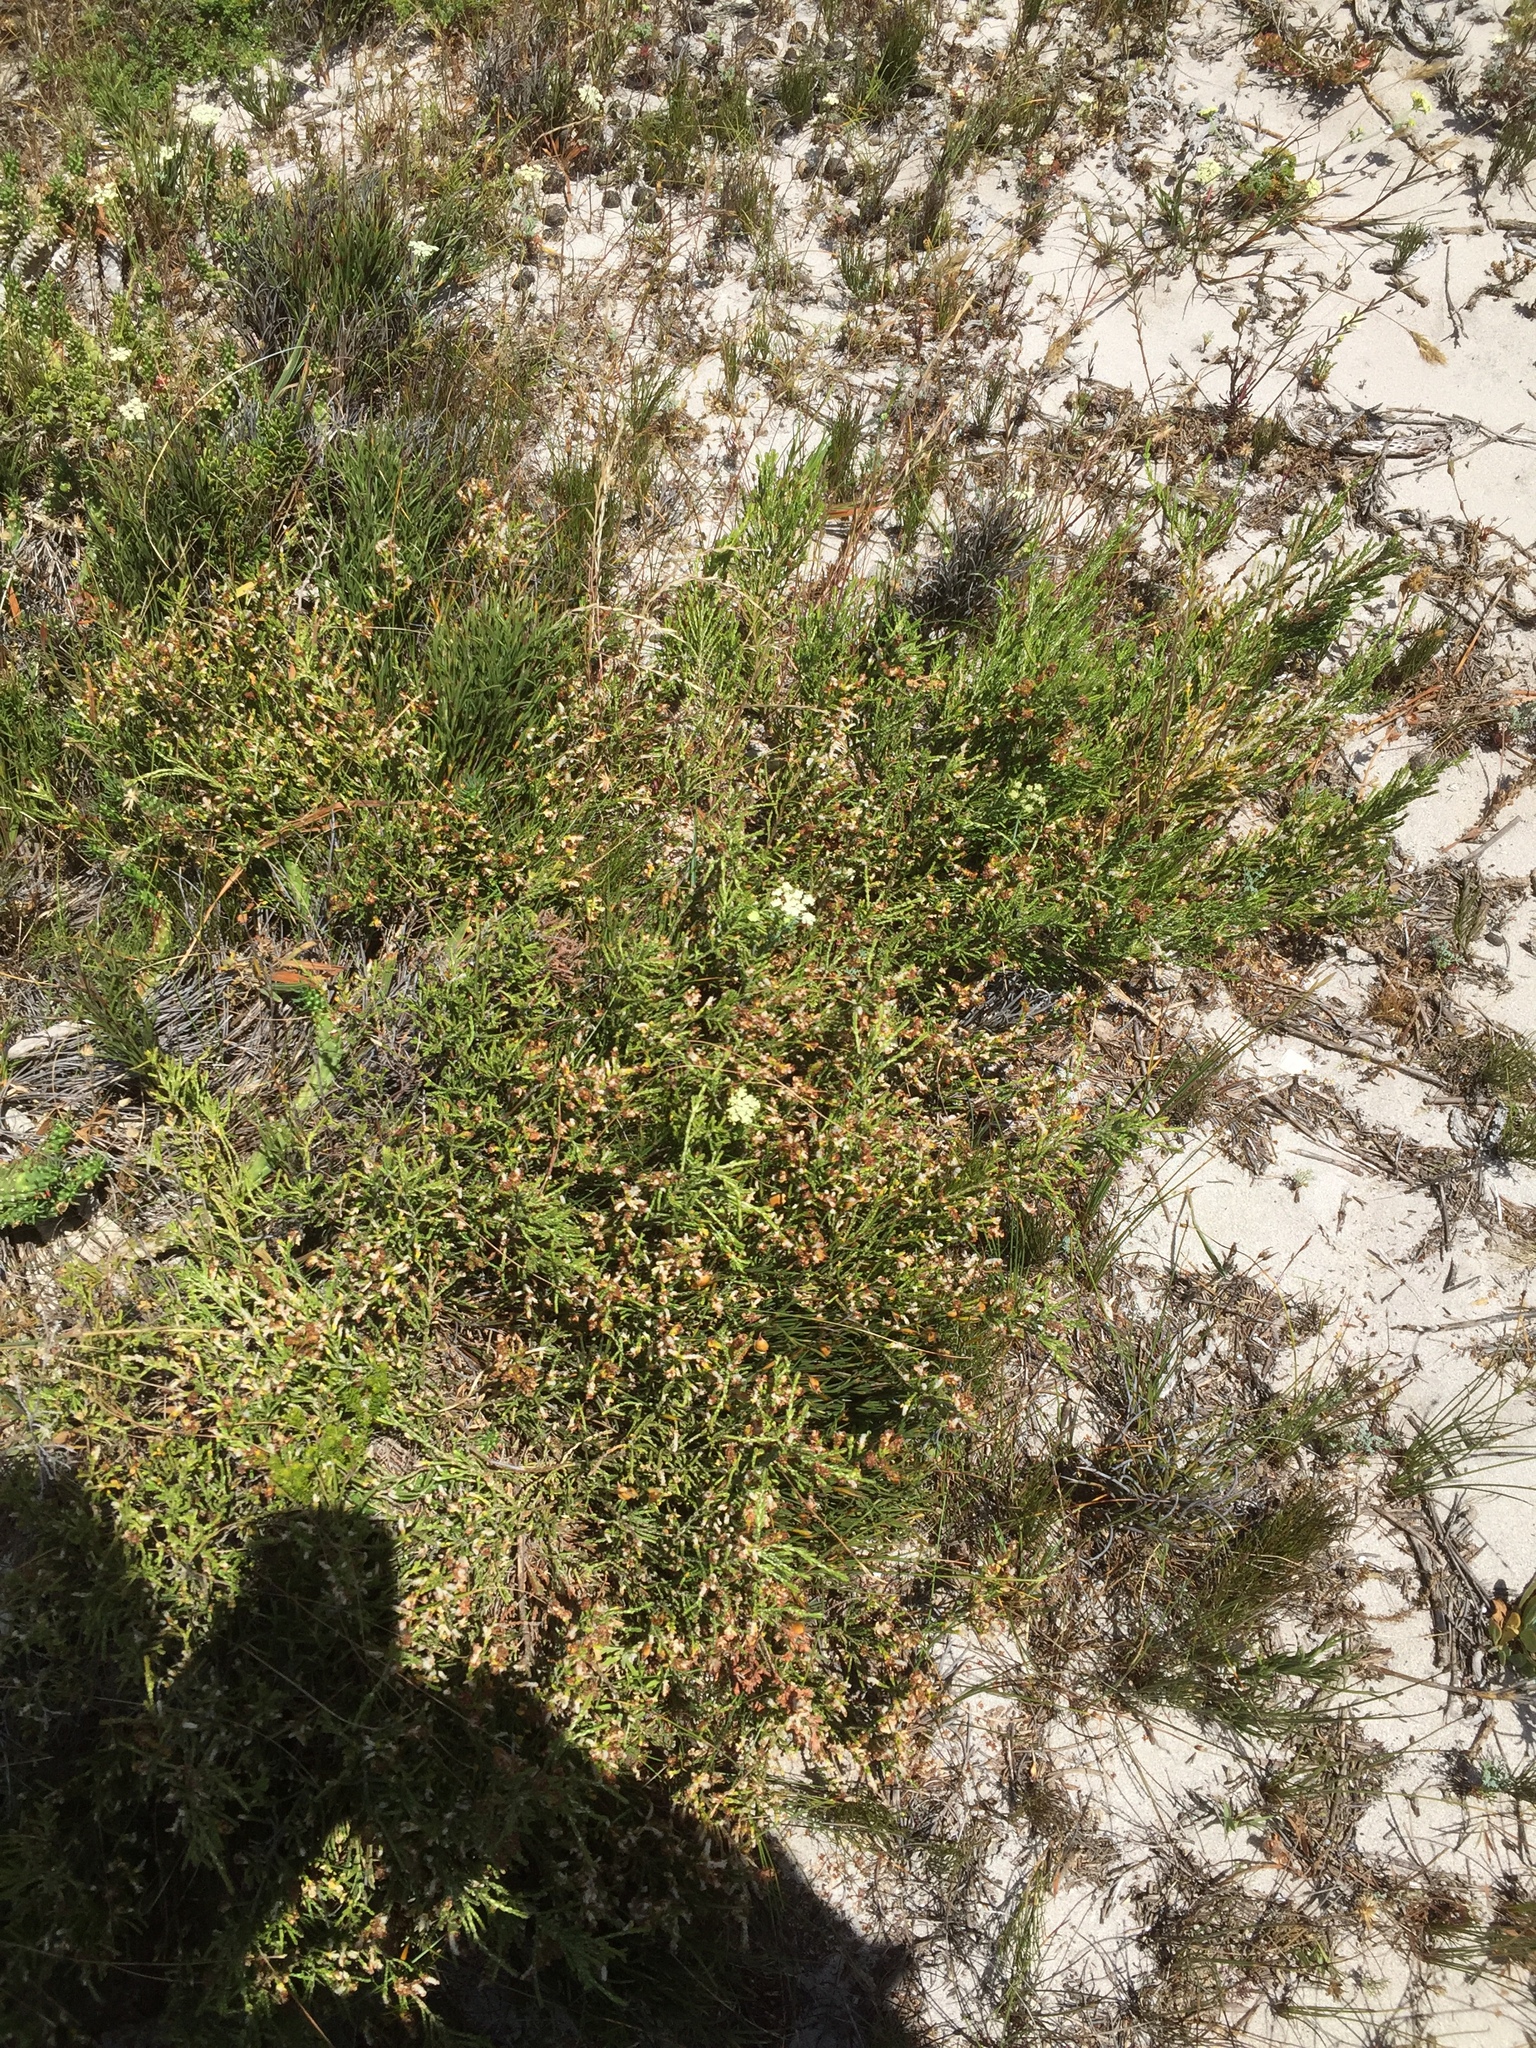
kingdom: Plantae
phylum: Tracheophyta
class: Magnoliopsida
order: Malvales
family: Thymelaeaceae
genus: Passerina
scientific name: Passerina ericoides
